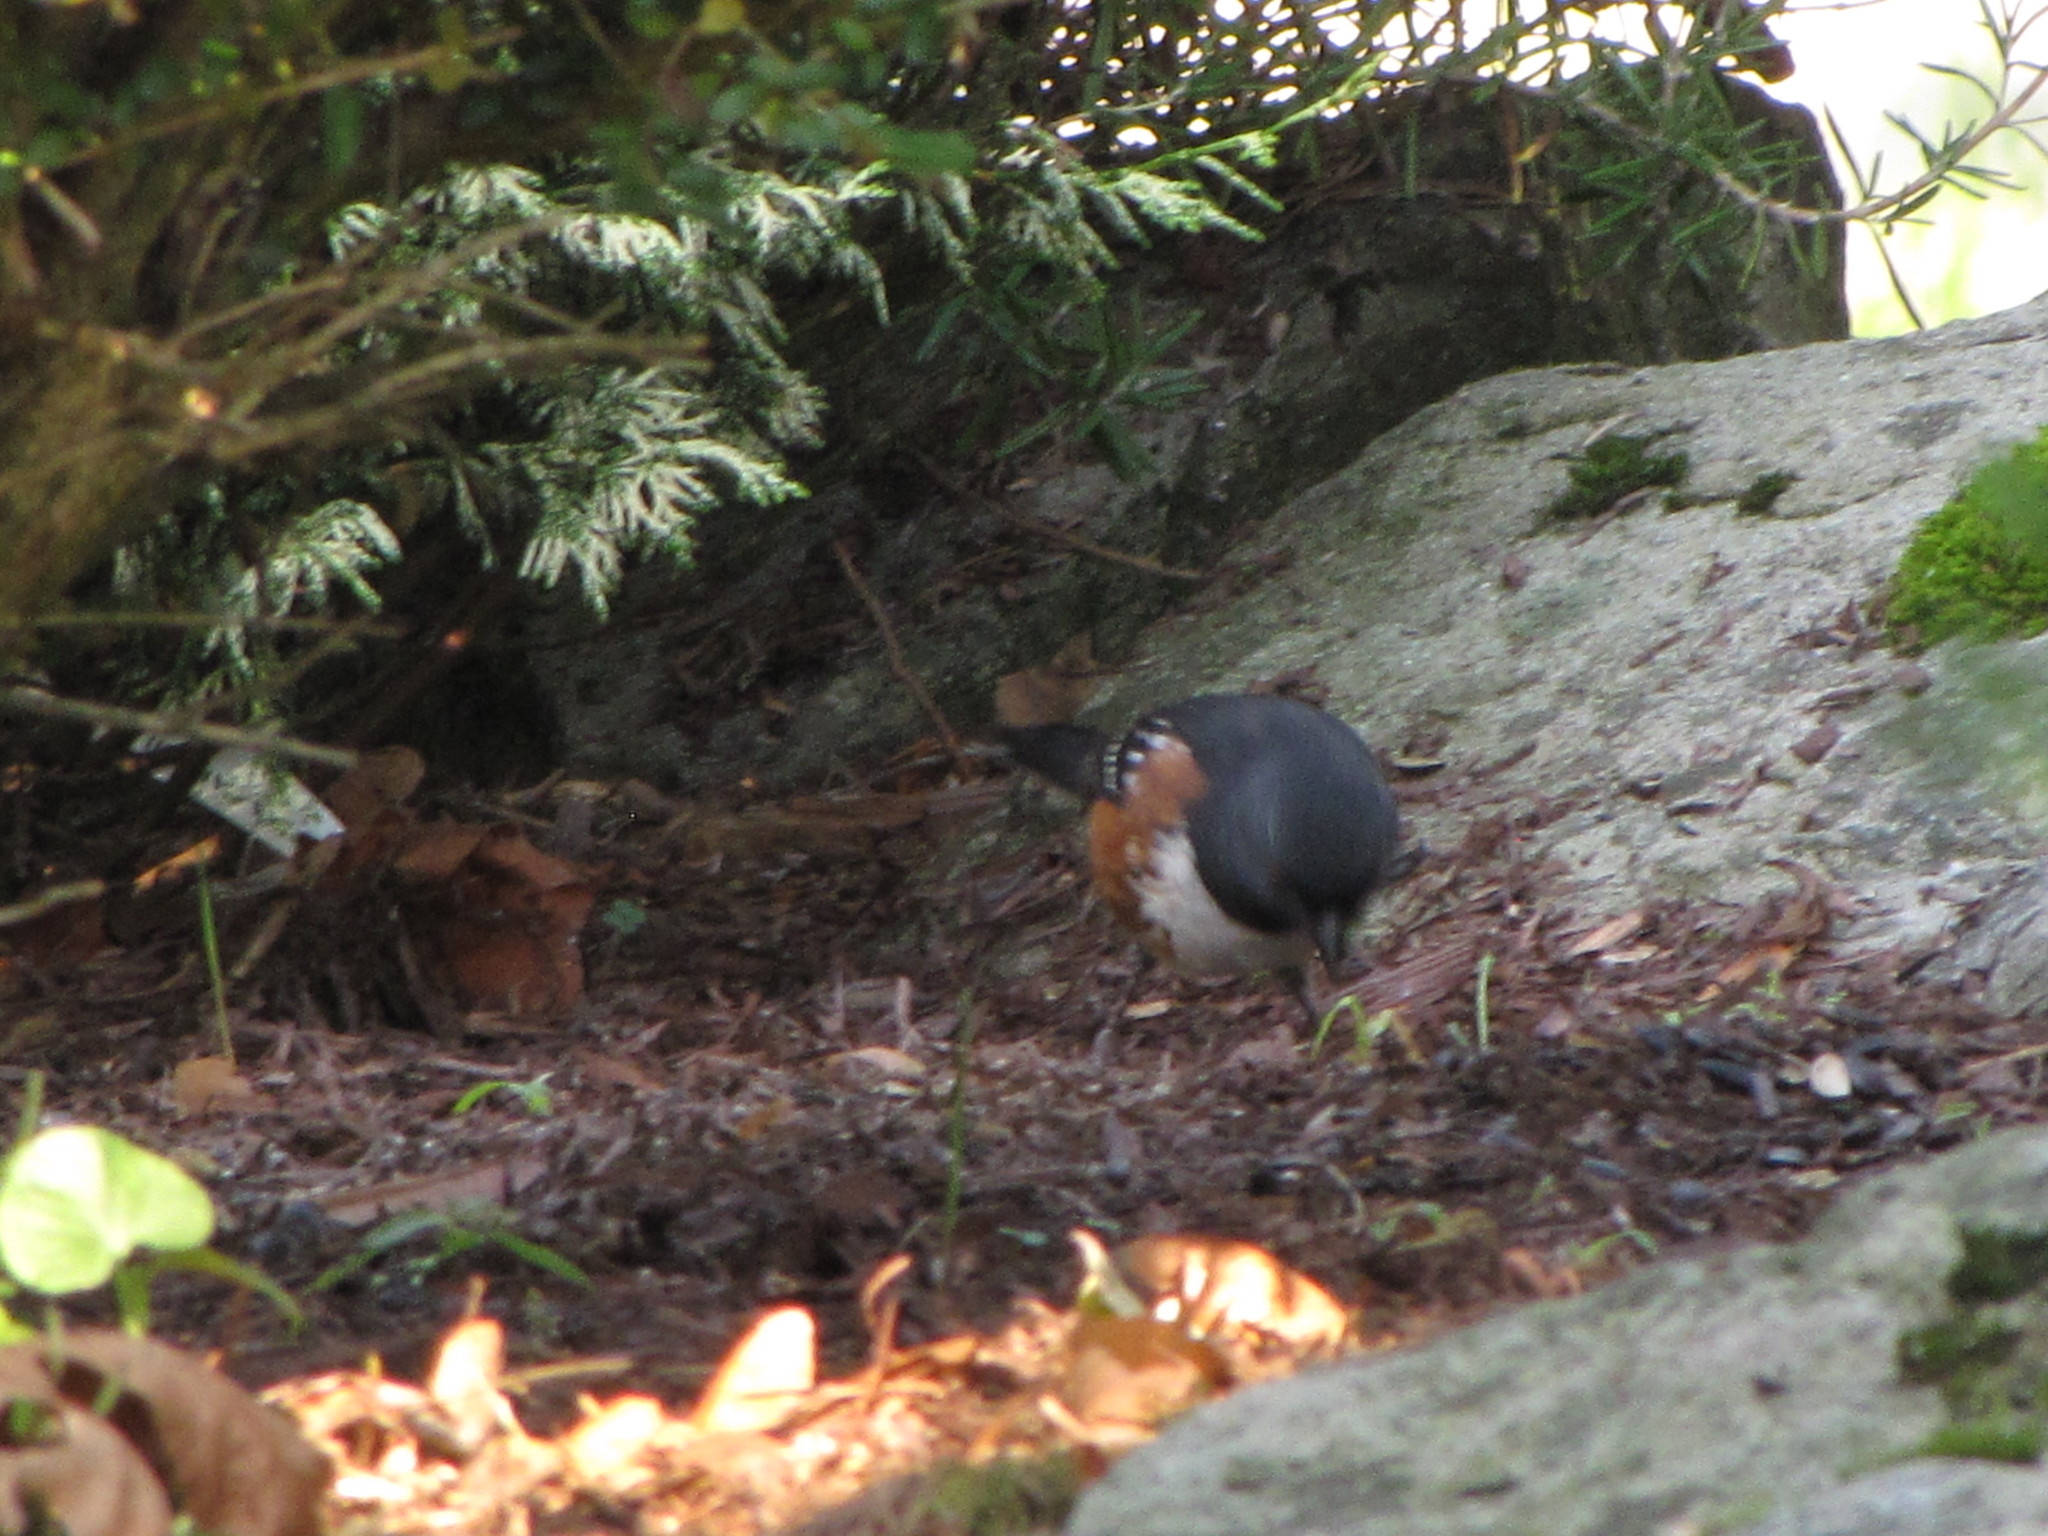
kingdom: Animalia
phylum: Chordata
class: Aves
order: Passeriformes
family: Passerellidae
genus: Pipilo
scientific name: Pipilo maculatus
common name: Spotted towhee
